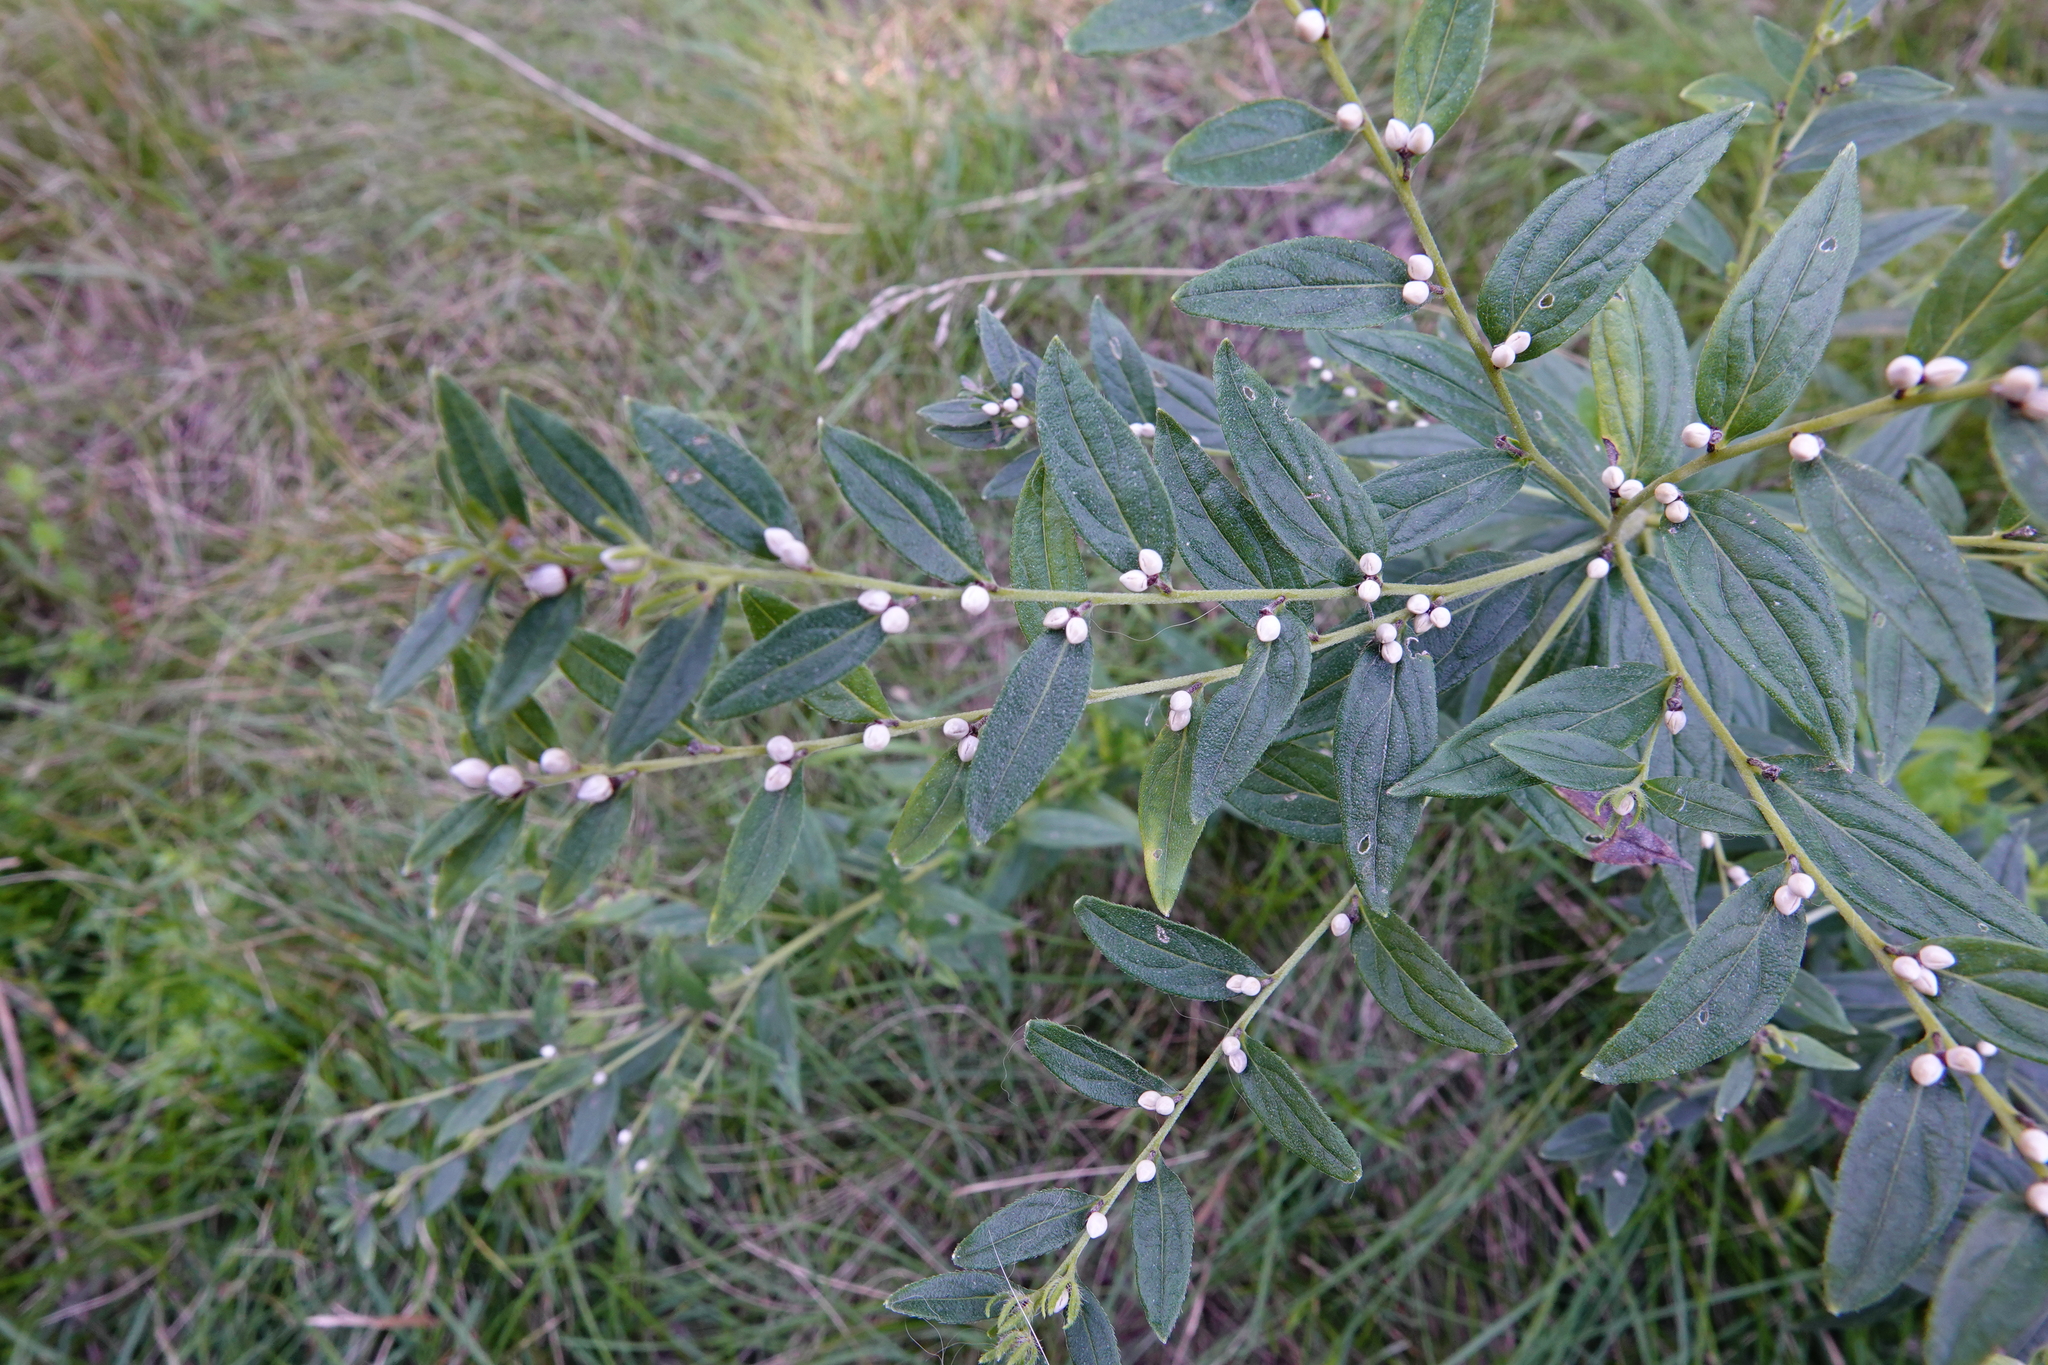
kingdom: Plantae
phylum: Tracheophyta
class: Magnoliopsida
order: Boraginales
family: Boraginaceae
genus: Lithospermum
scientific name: Lithospermum officinale
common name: Common gromwell
